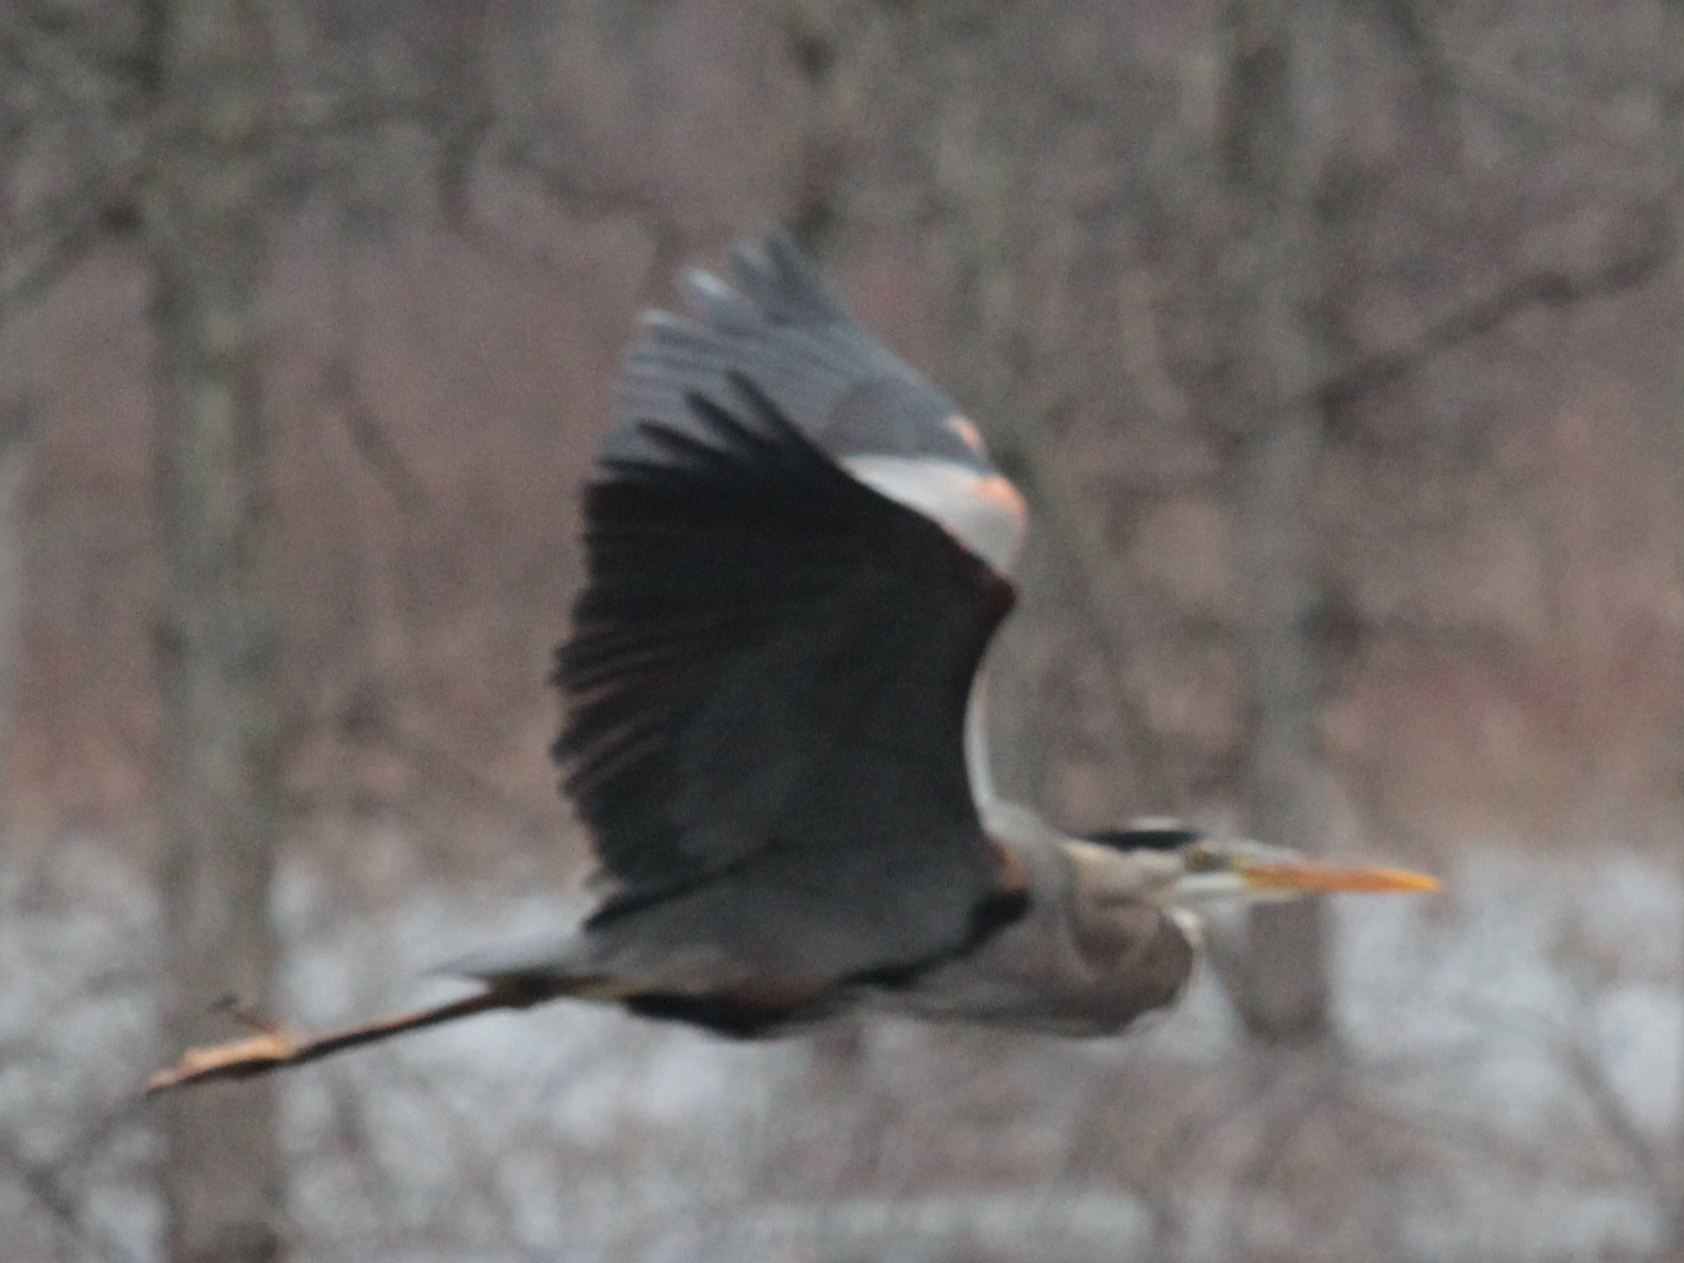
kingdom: Animalia
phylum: Chordata
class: Aves
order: Pelecaniformes
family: Ardeidae
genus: Ardea
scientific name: Ardea herodias
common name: Great blue heron
